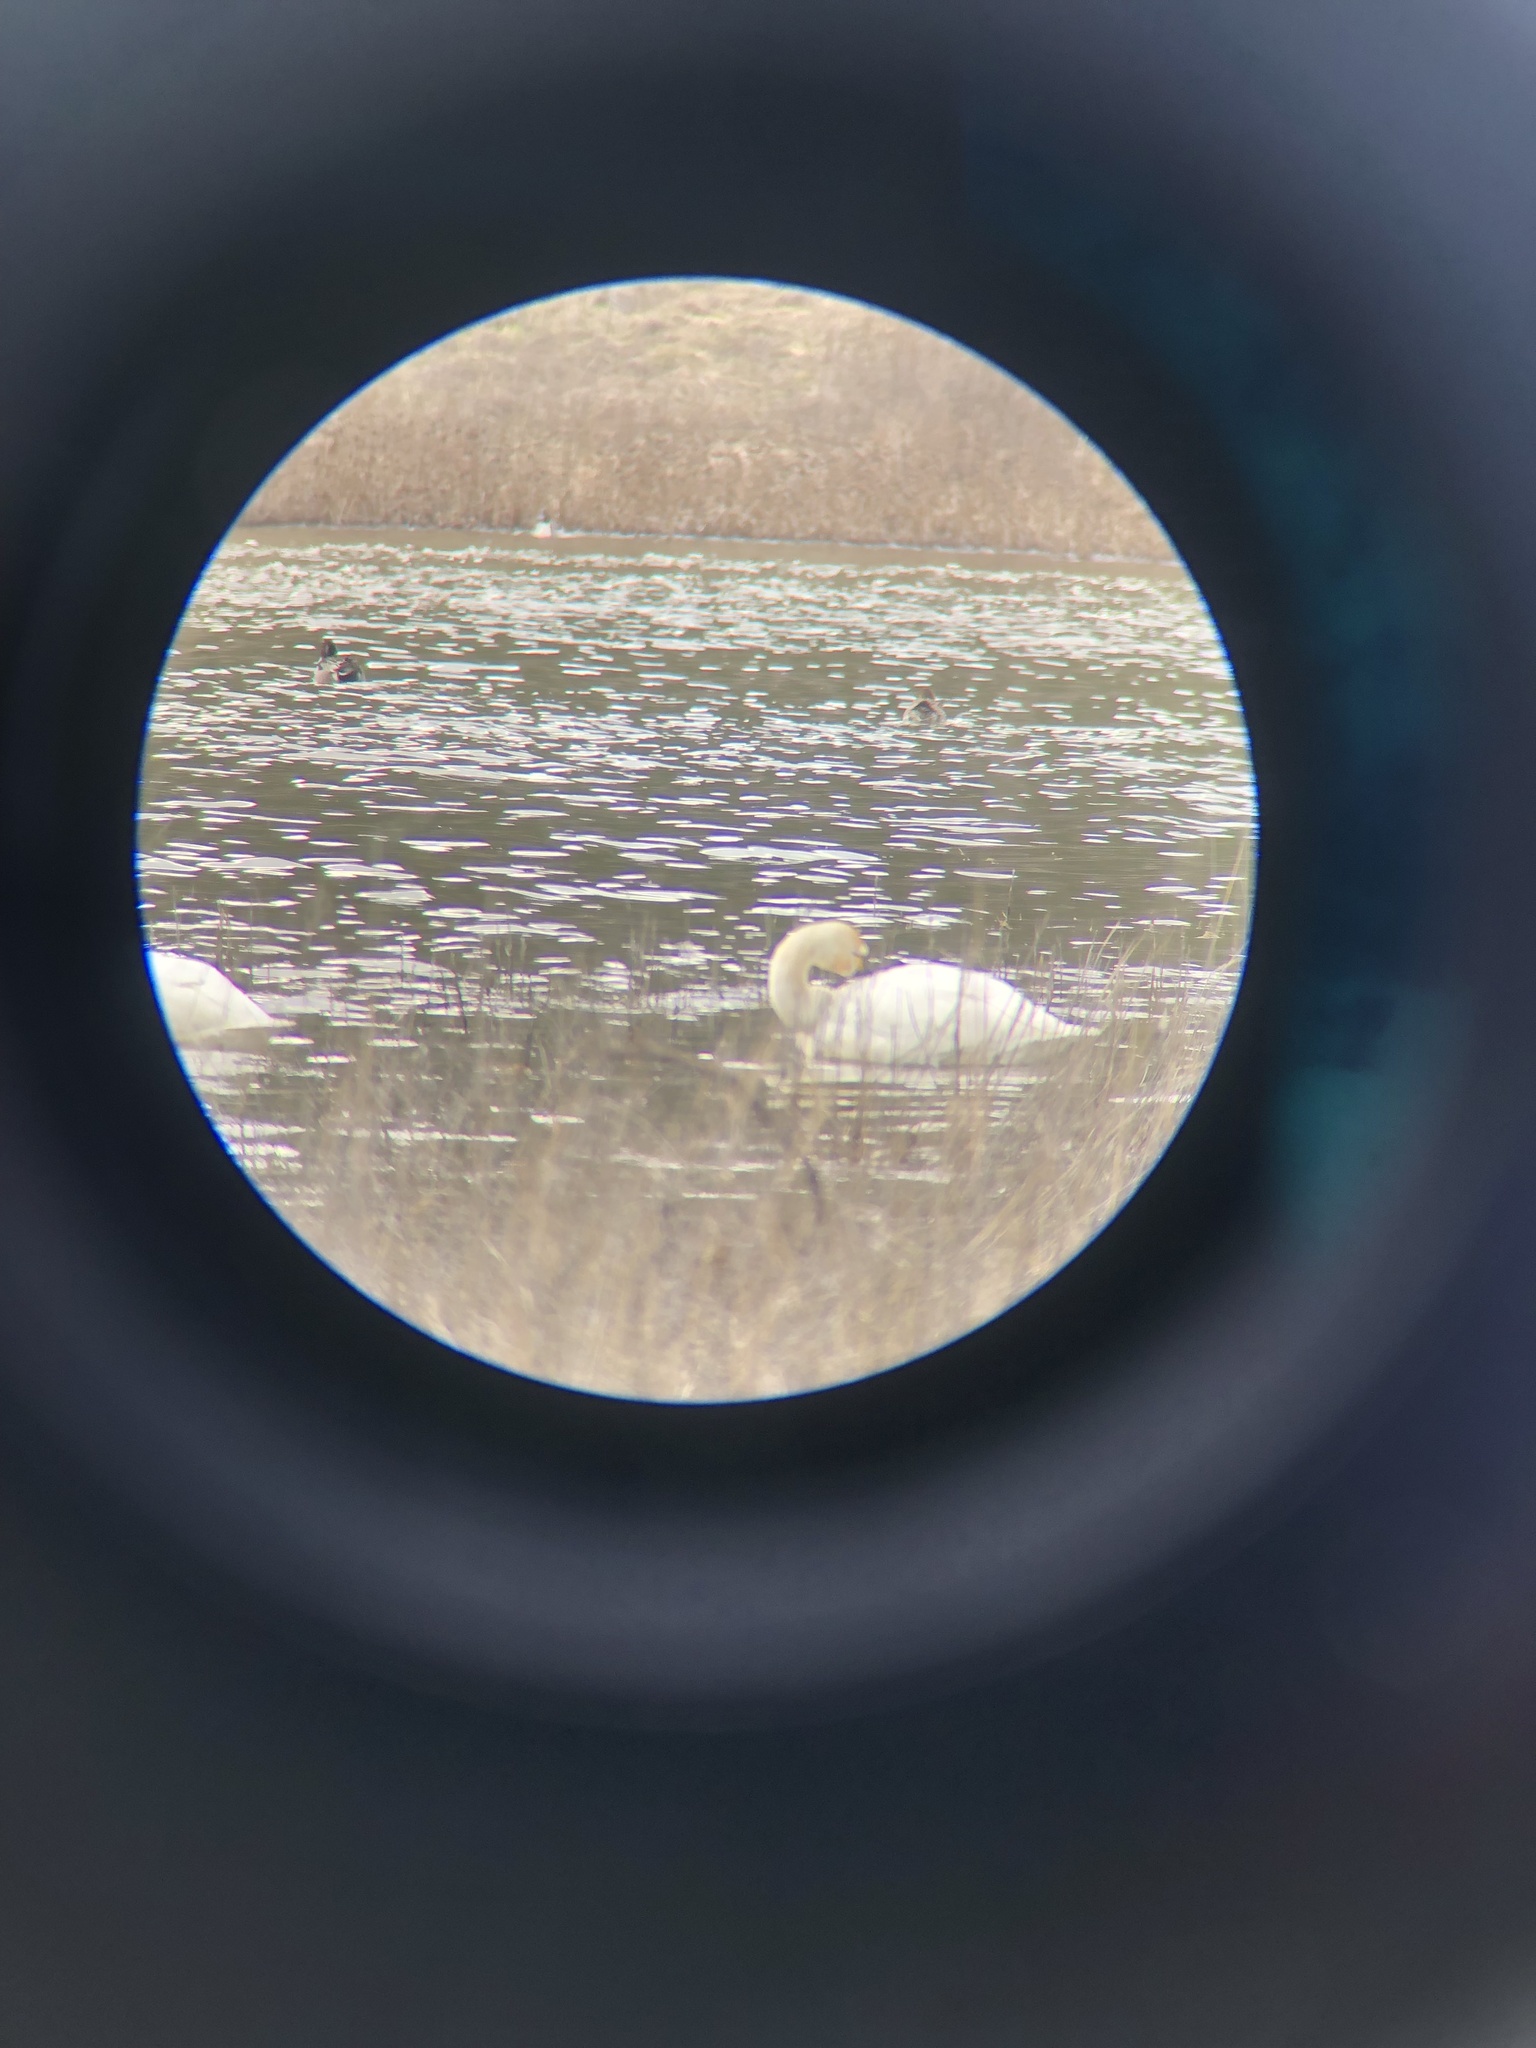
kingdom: Animalia
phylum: Chordata
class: Aves
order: Anseriformes
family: Anatidae
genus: Cygnus
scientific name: Cygnus columbianus
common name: Tundra swan
